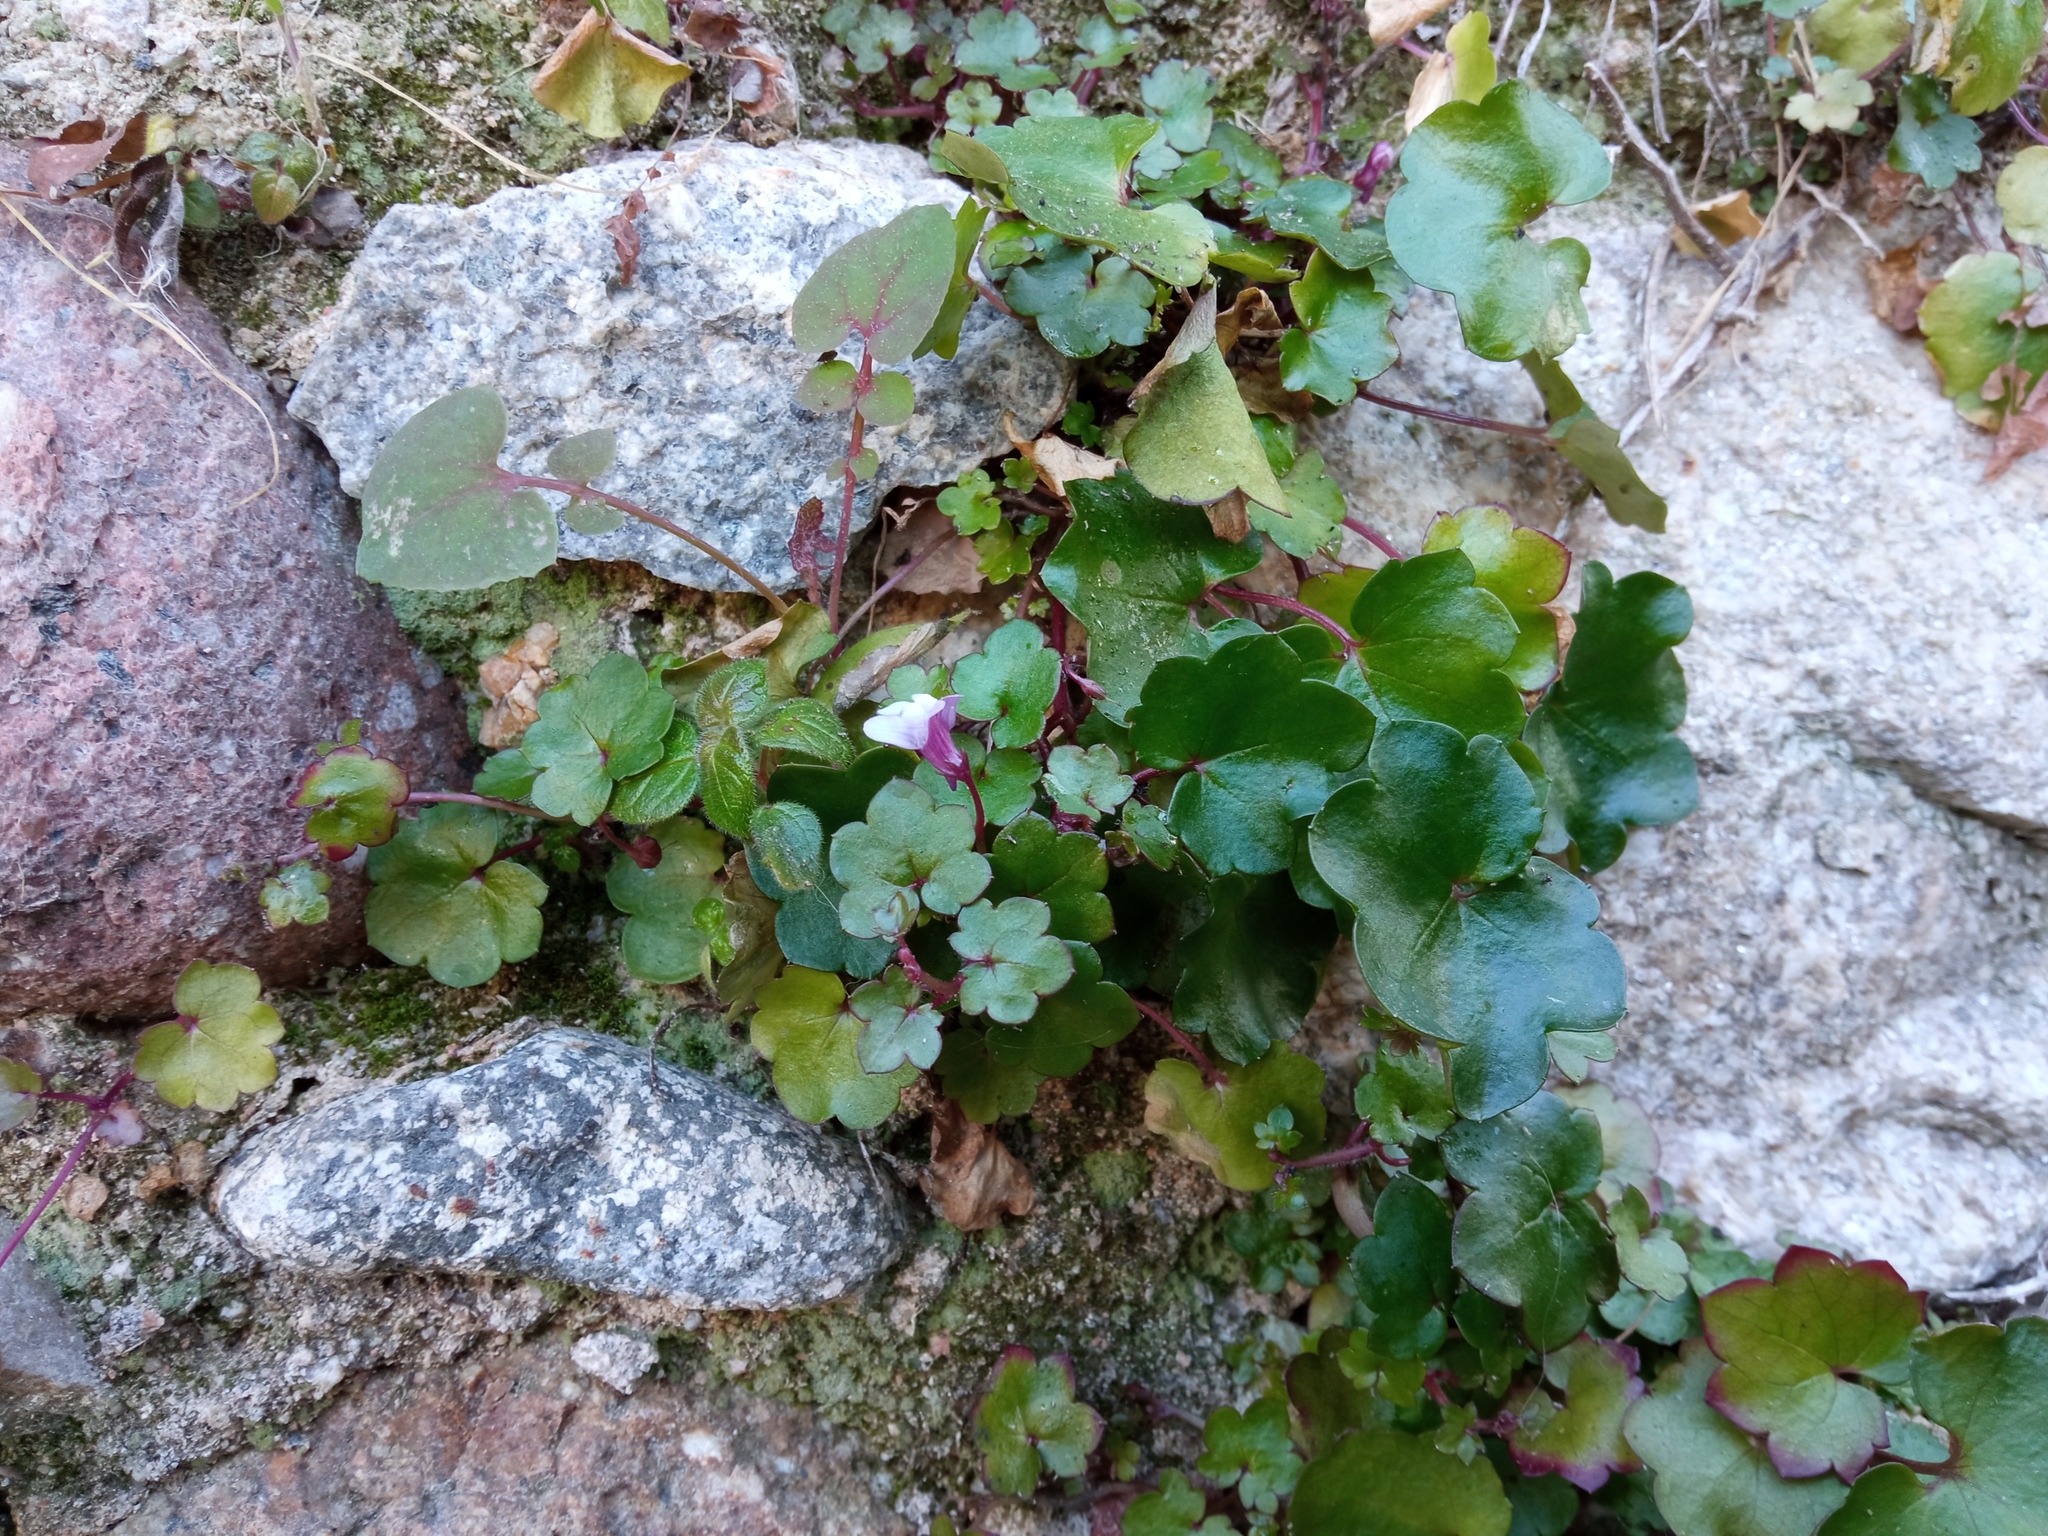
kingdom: Plantae
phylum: Tracheophyta
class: Magnoliopsida
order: Lamiales
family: Plantaginaceae
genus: Cymbalaria
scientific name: Cymbalaria muralis
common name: Ivy-leaved toadflax
